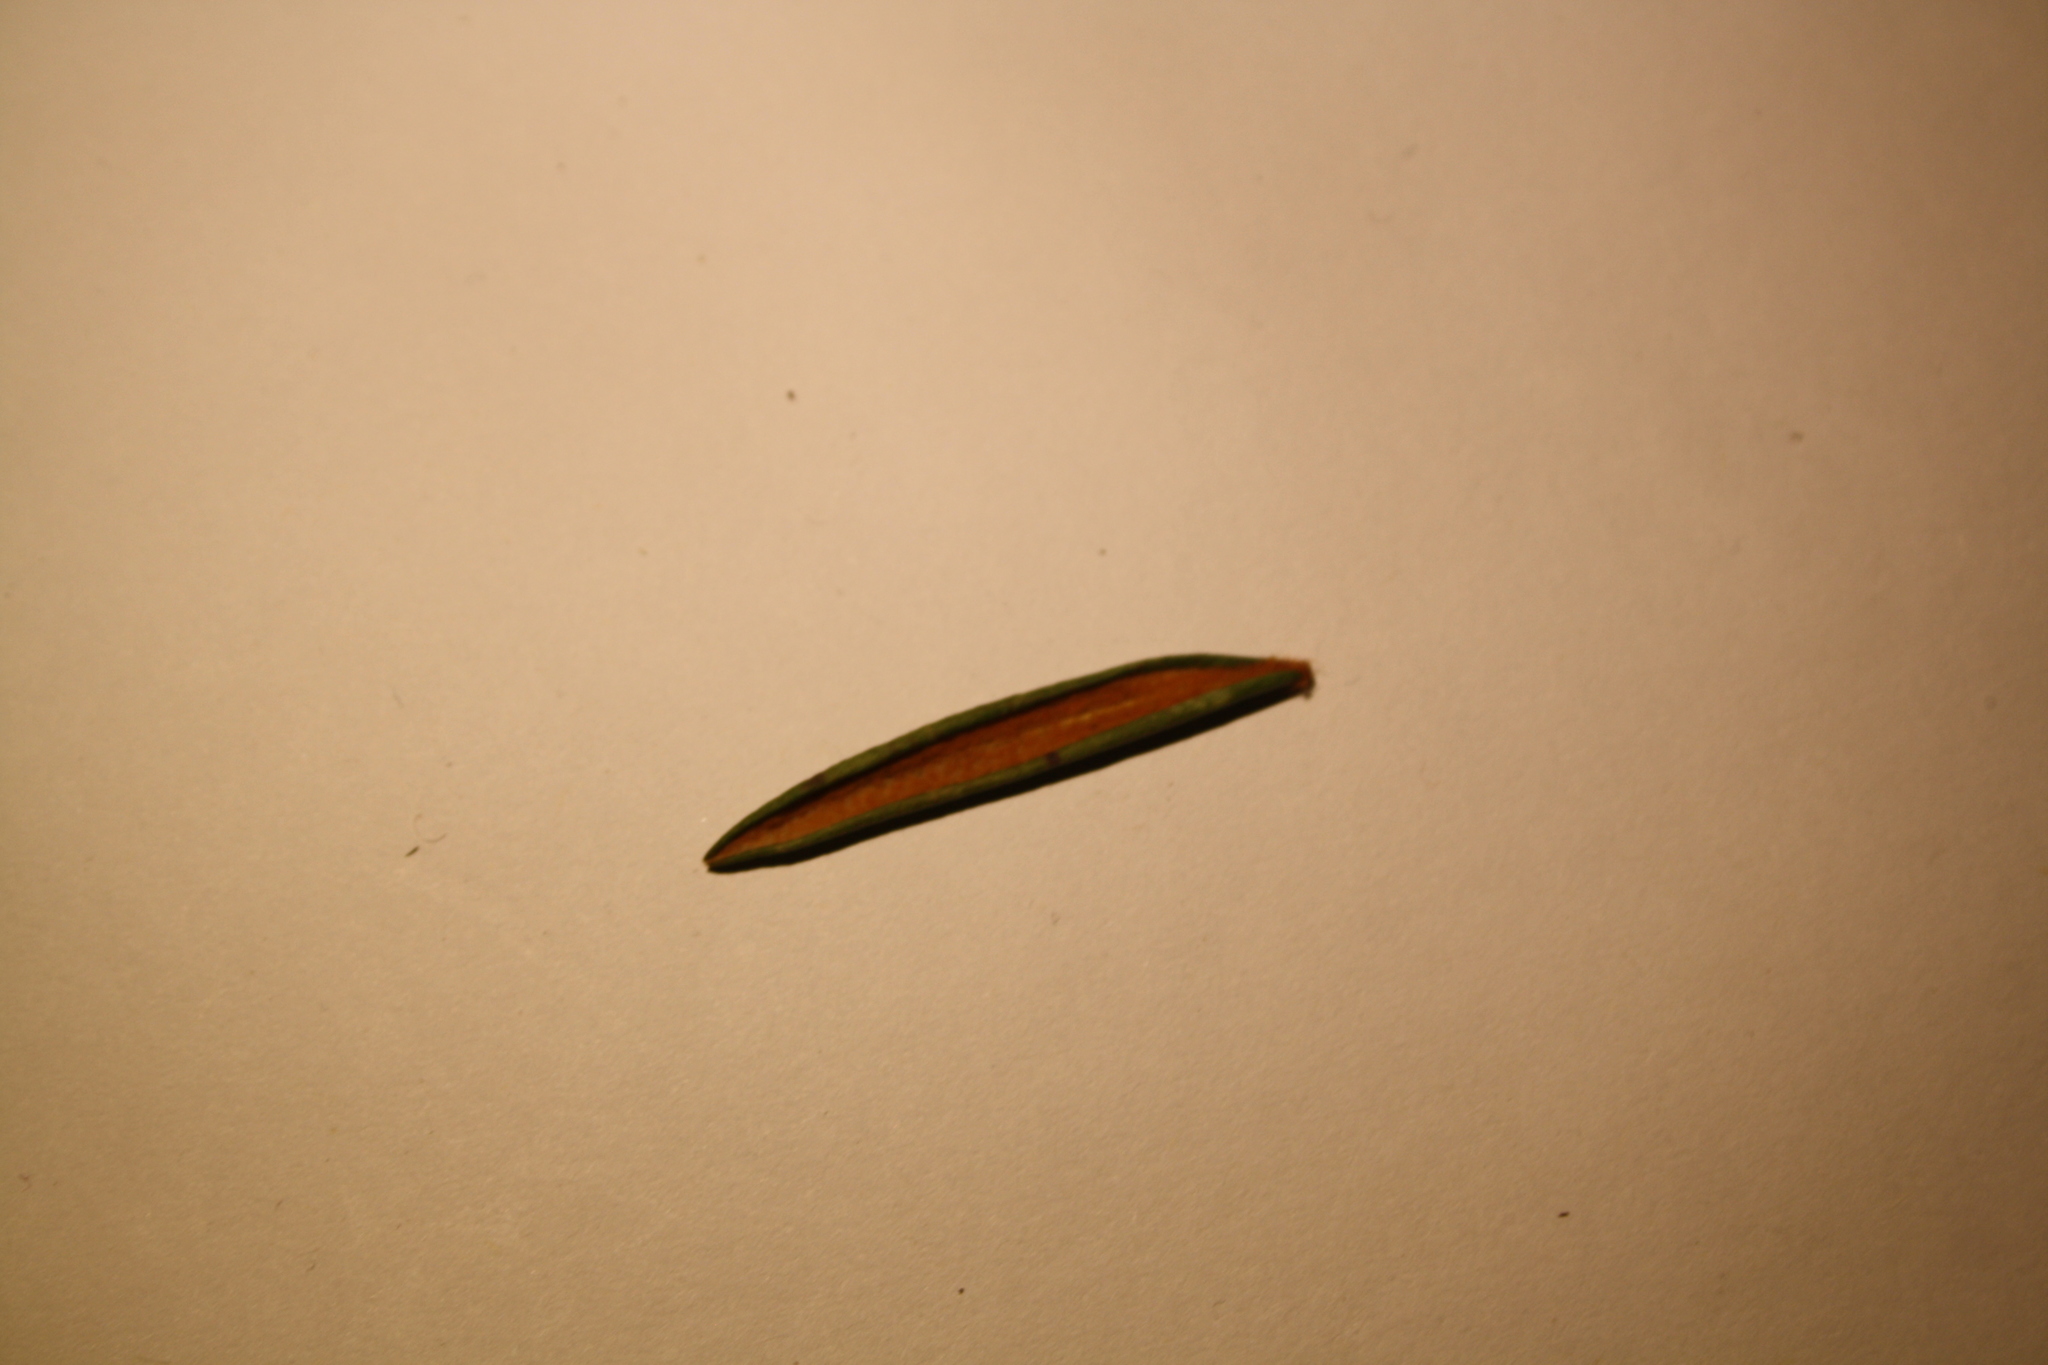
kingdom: Plantae
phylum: Tracheophyta
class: Magnoliopsida
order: Ericales
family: Ericaceae
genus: Rhododendron
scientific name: Rhododendron groenlandicum
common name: Bog labrador tea
